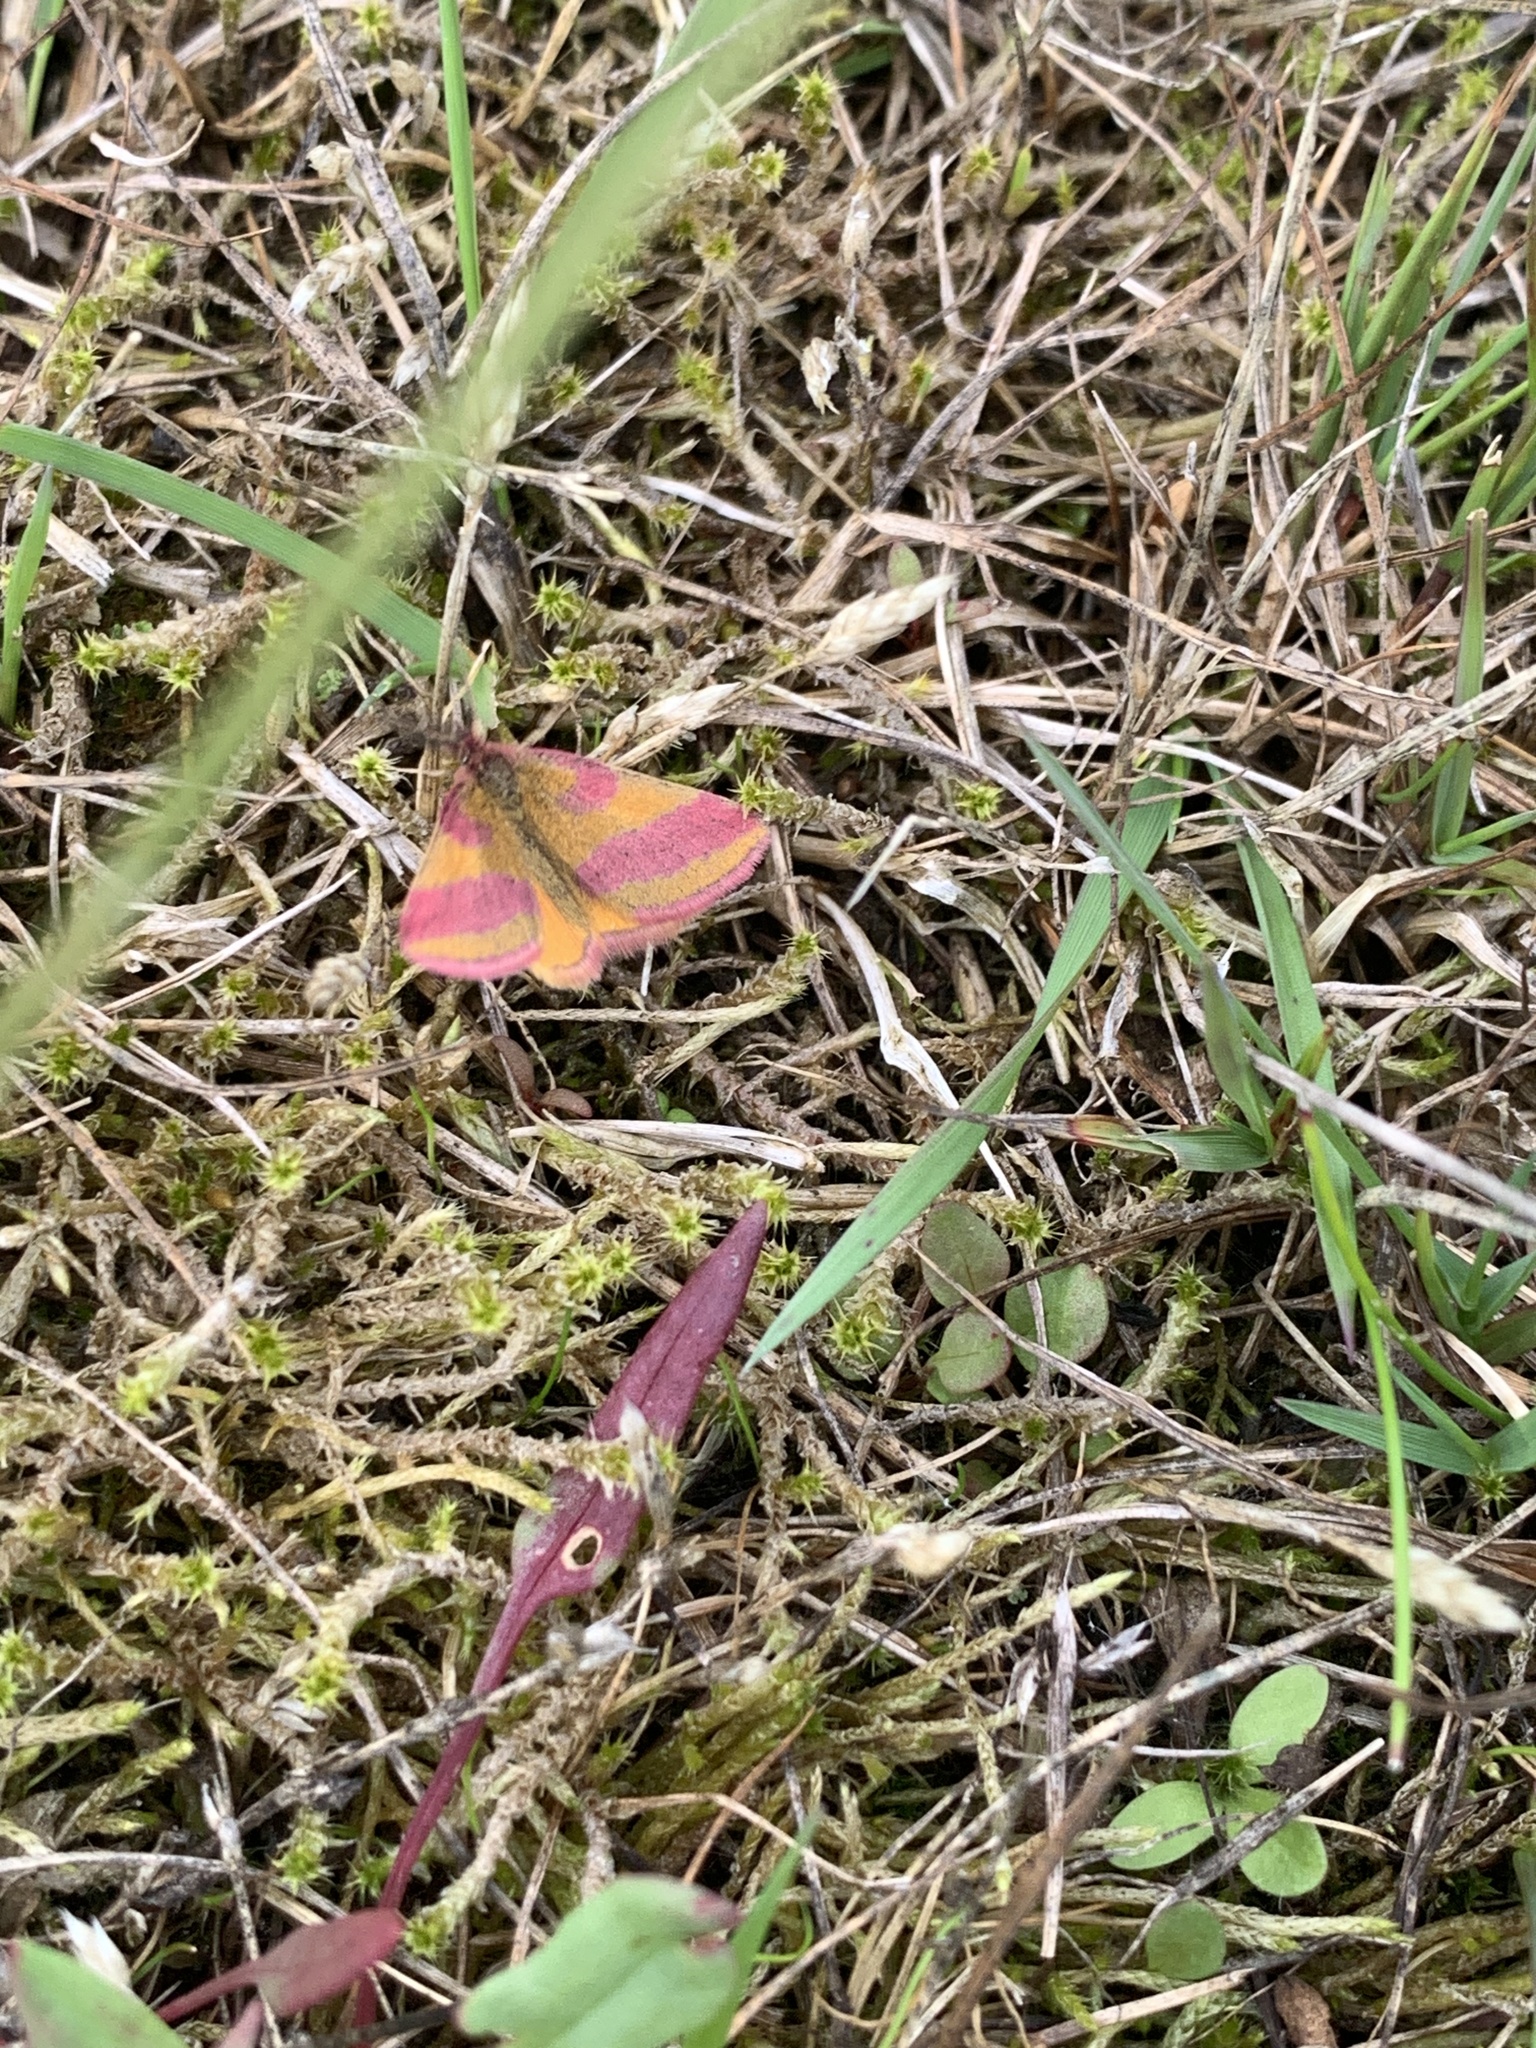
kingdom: Animalia
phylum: Arthropoda
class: Insecta
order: Lepidoptera
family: Geometridae
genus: Lythria
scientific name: Lythria cruentaria
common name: Purple-barred yellow
